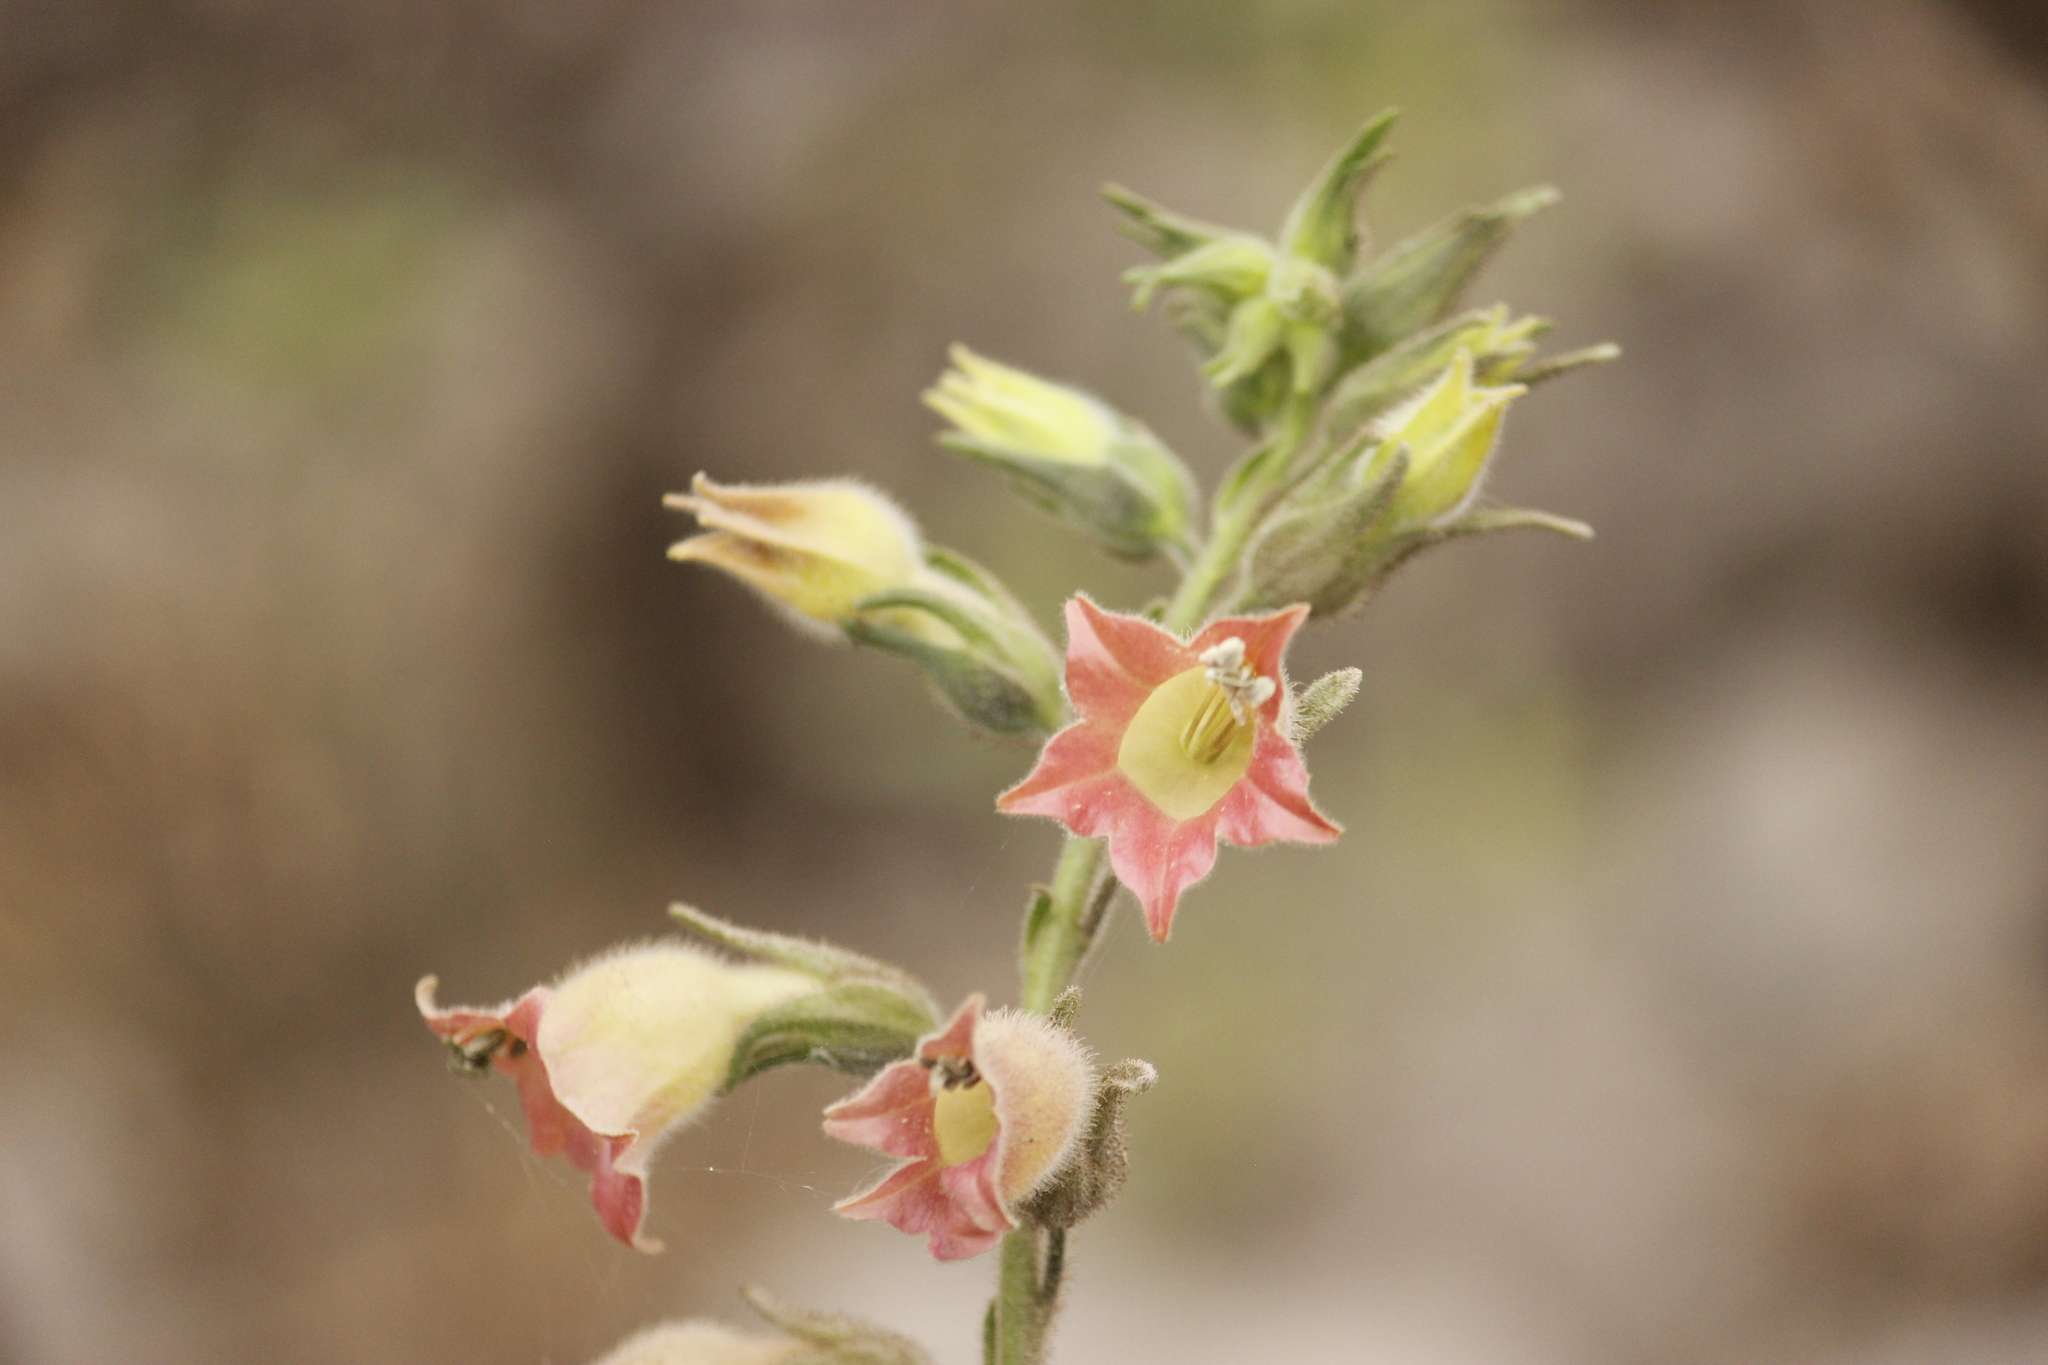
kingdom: Plantae
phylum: Tracheophyta
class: Magnoliopsida
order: Solanales
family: Solanaceae
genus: Nicotiana
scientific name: Nicotiana glutinosa
